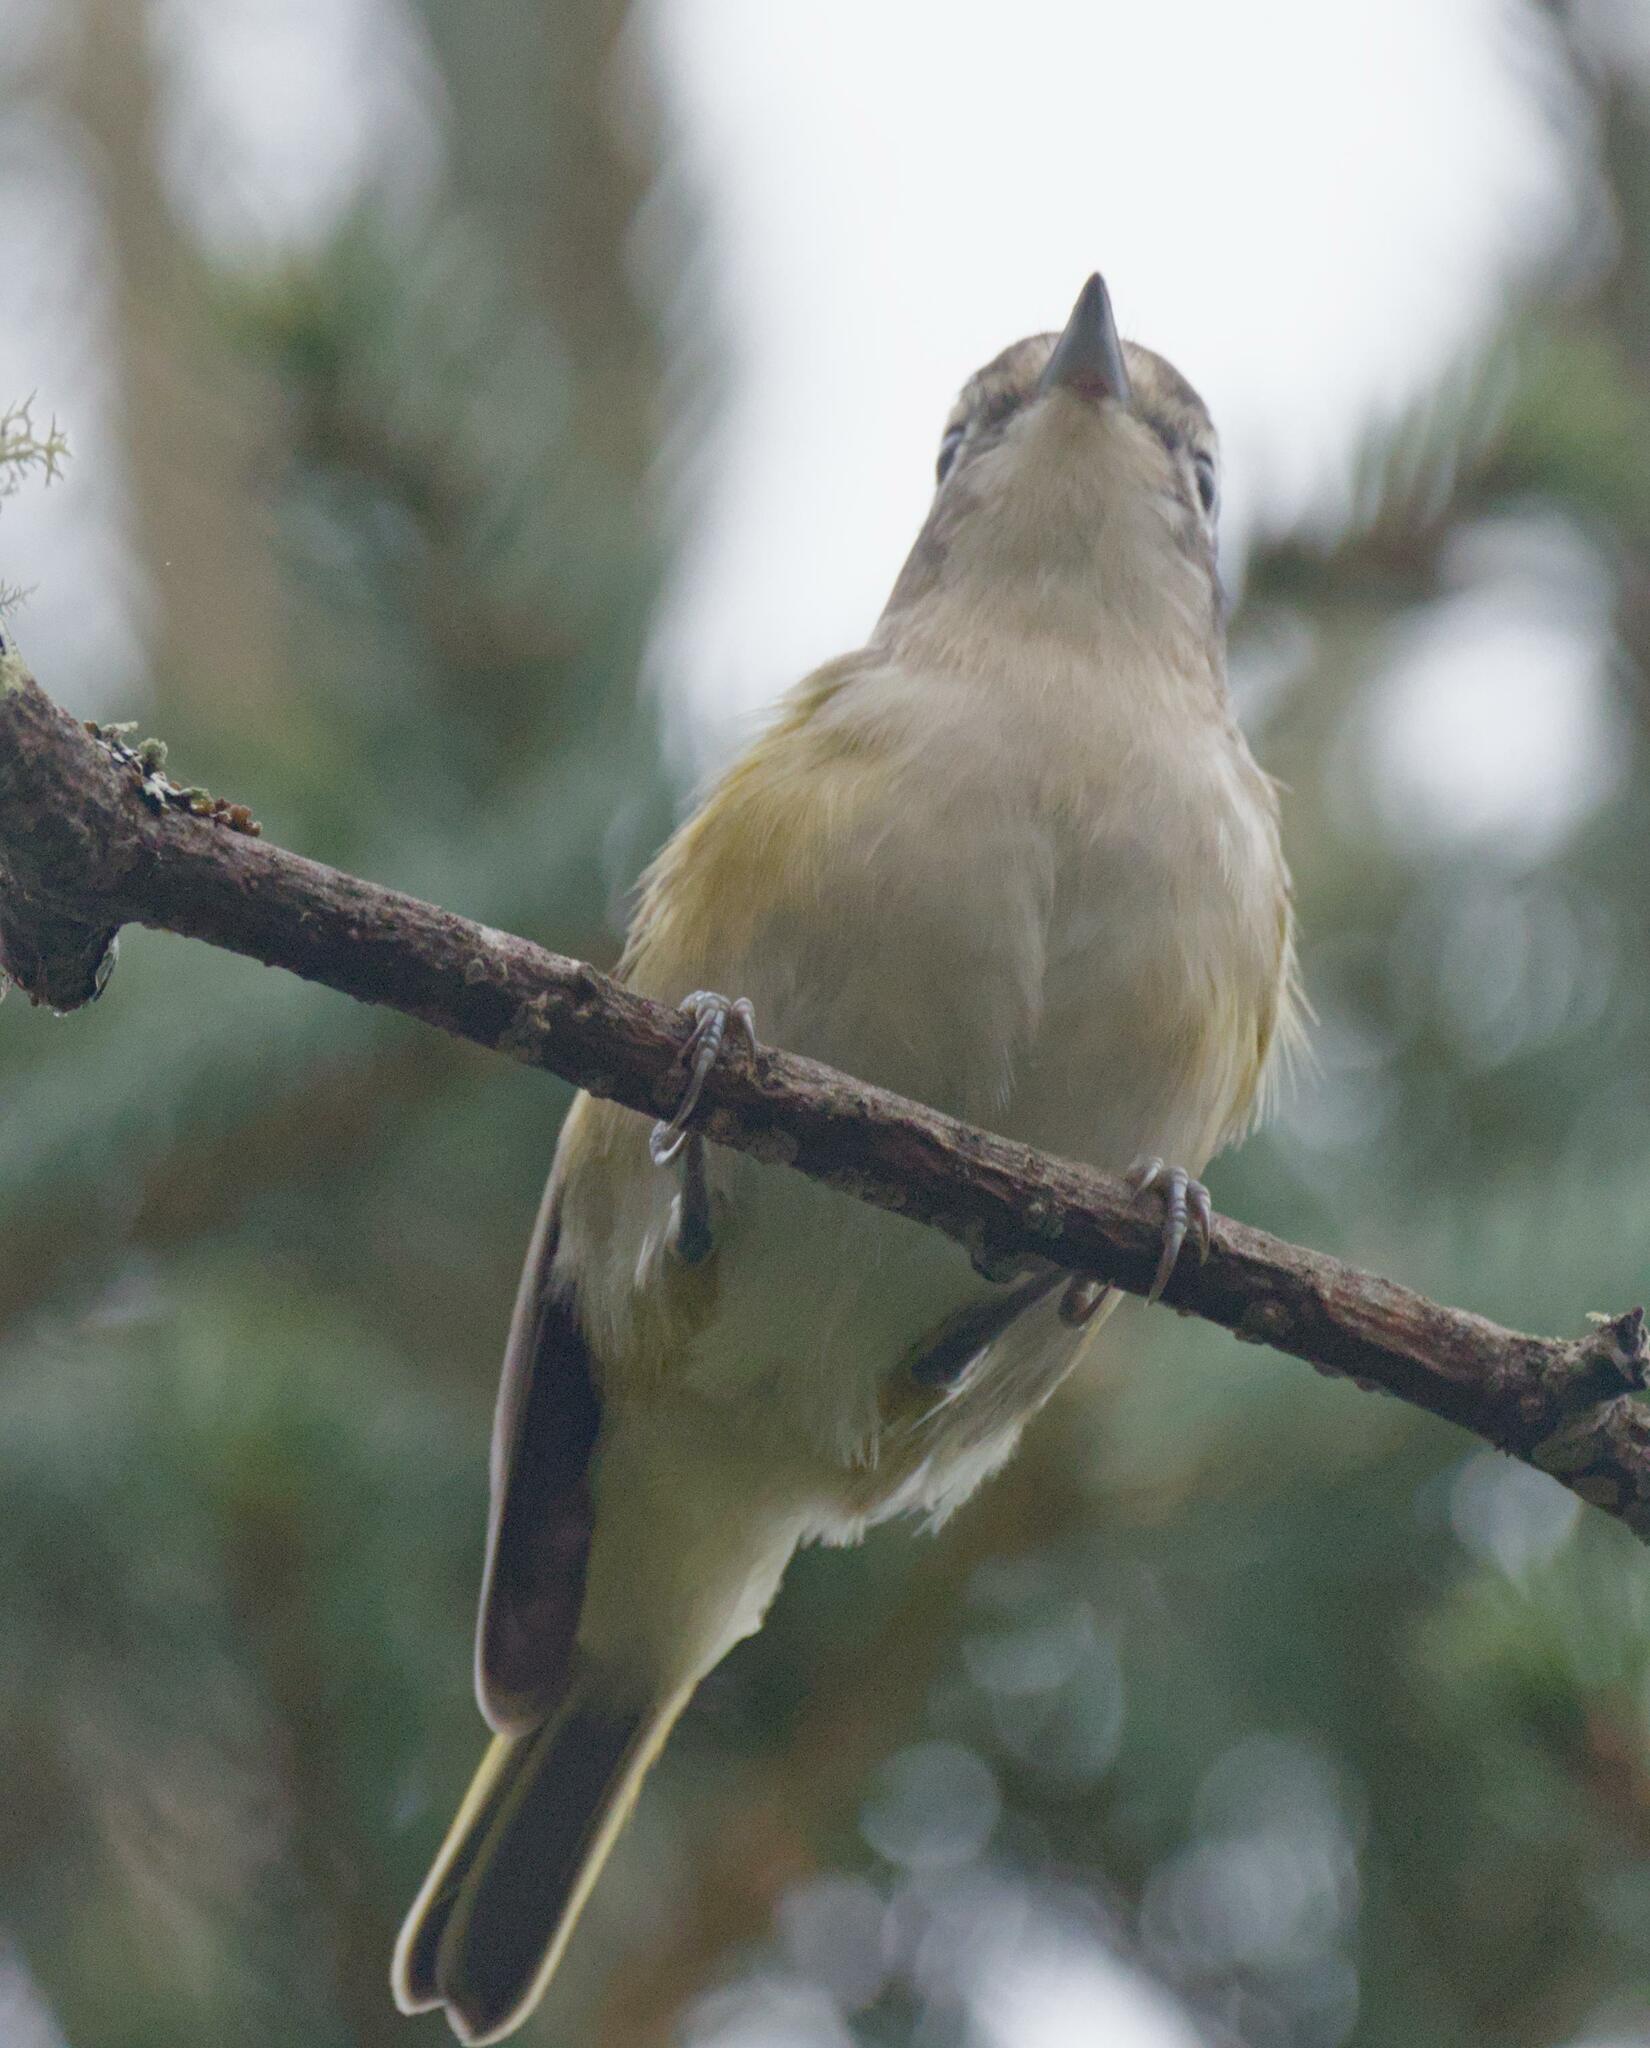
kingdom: Animalia
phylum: Chordata
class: Aves
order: Passeriformes
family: Vireonidae
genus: Vireo
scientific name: Vireo solitarius
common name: Blue-headed vireo
